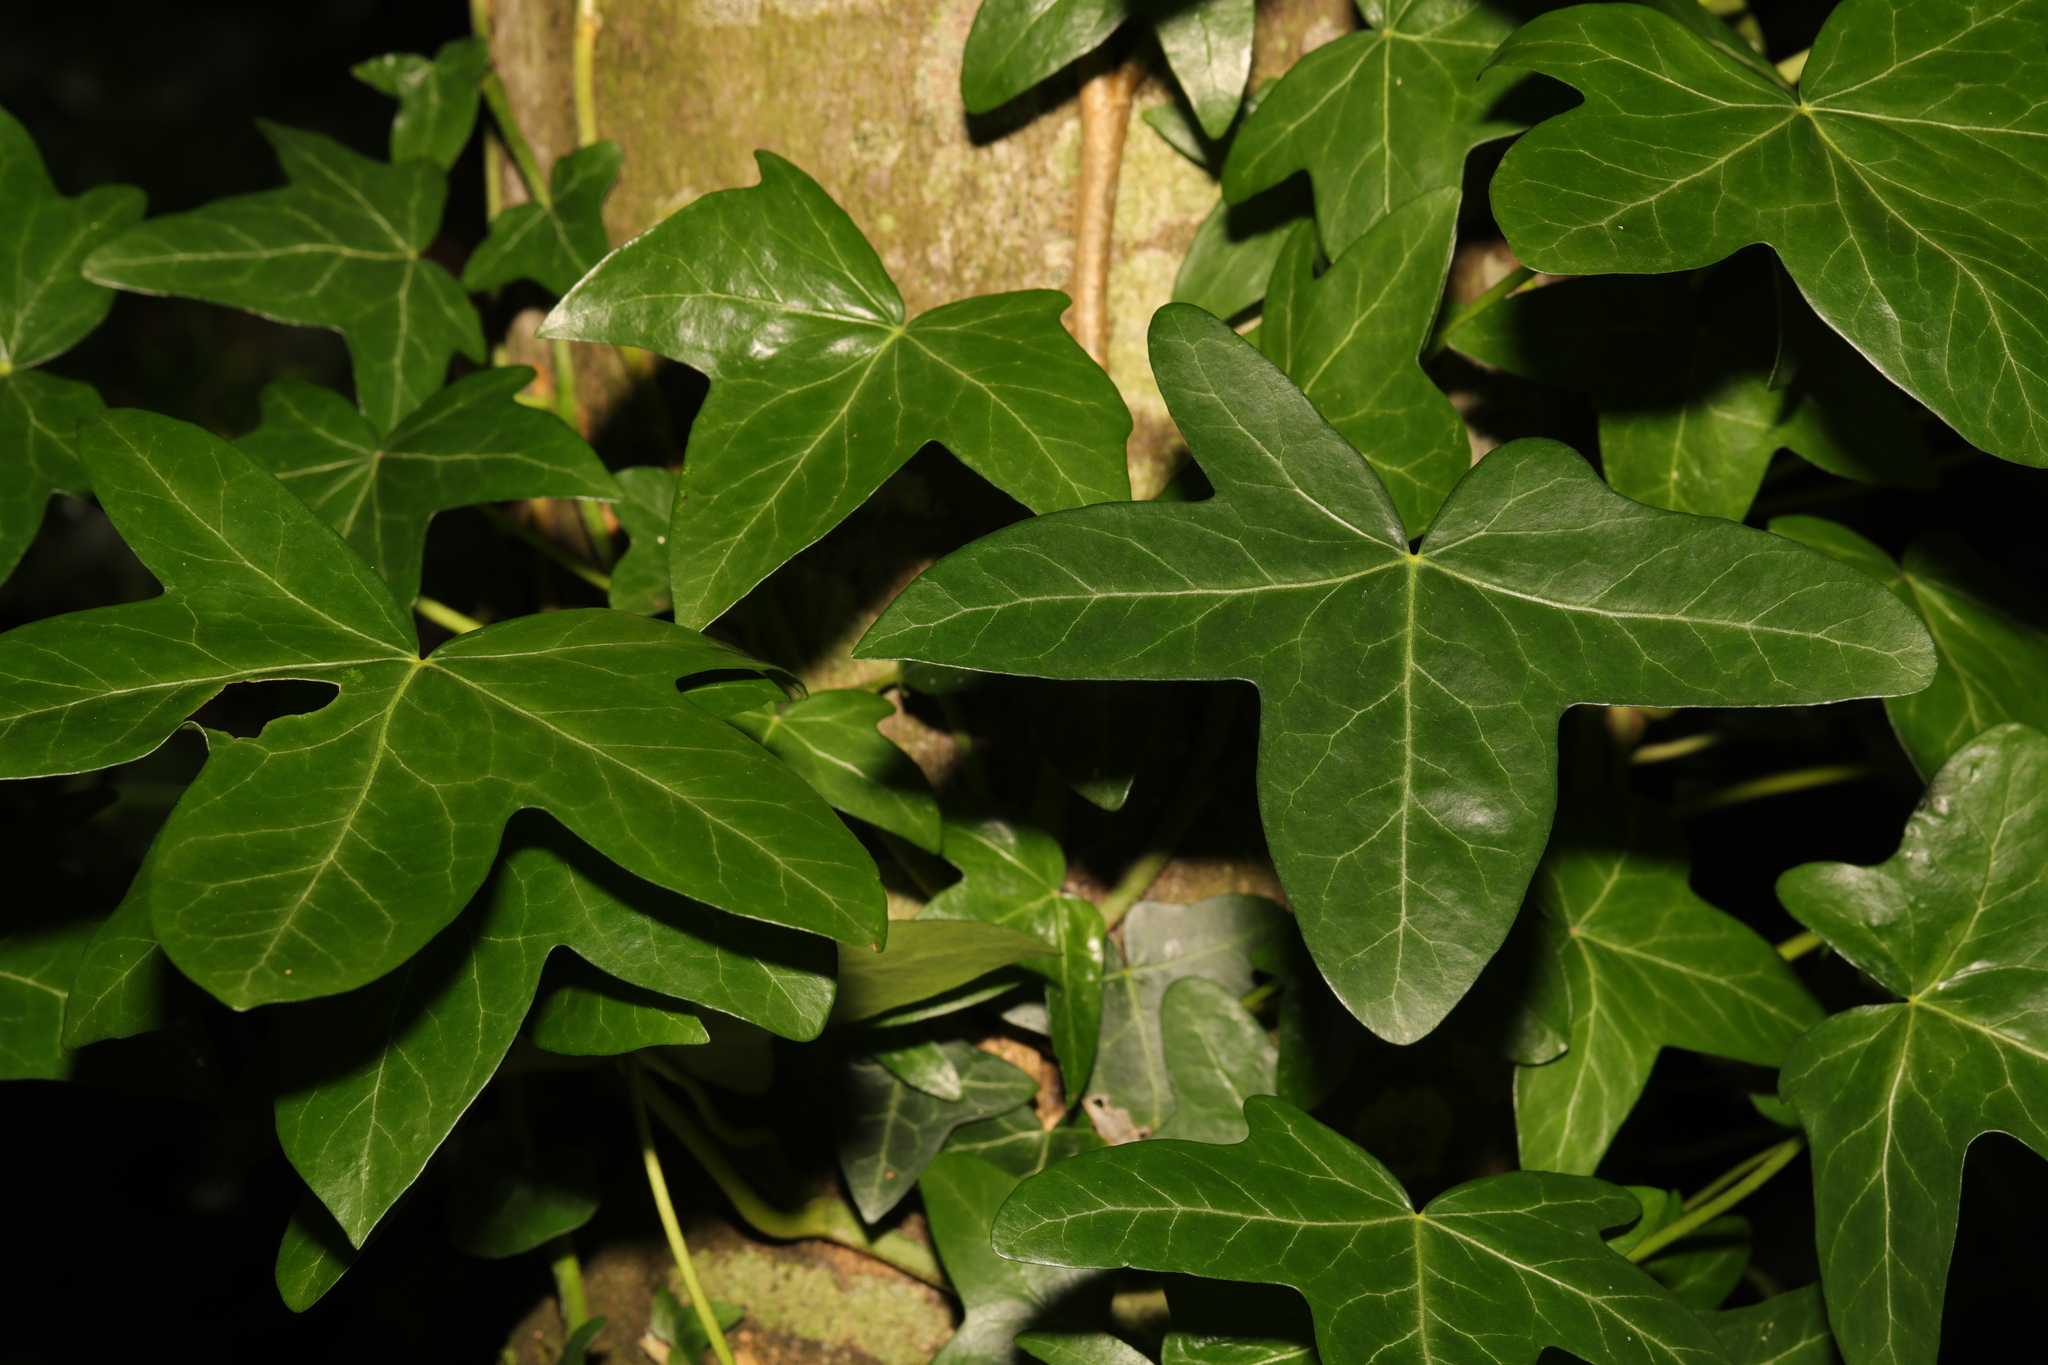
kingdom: Plantae
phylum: Tracheophyta
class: Magnoliopsida
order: Apiales
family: Araliaceae
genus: Hedera
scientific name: Hedera helix
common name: Ivy
